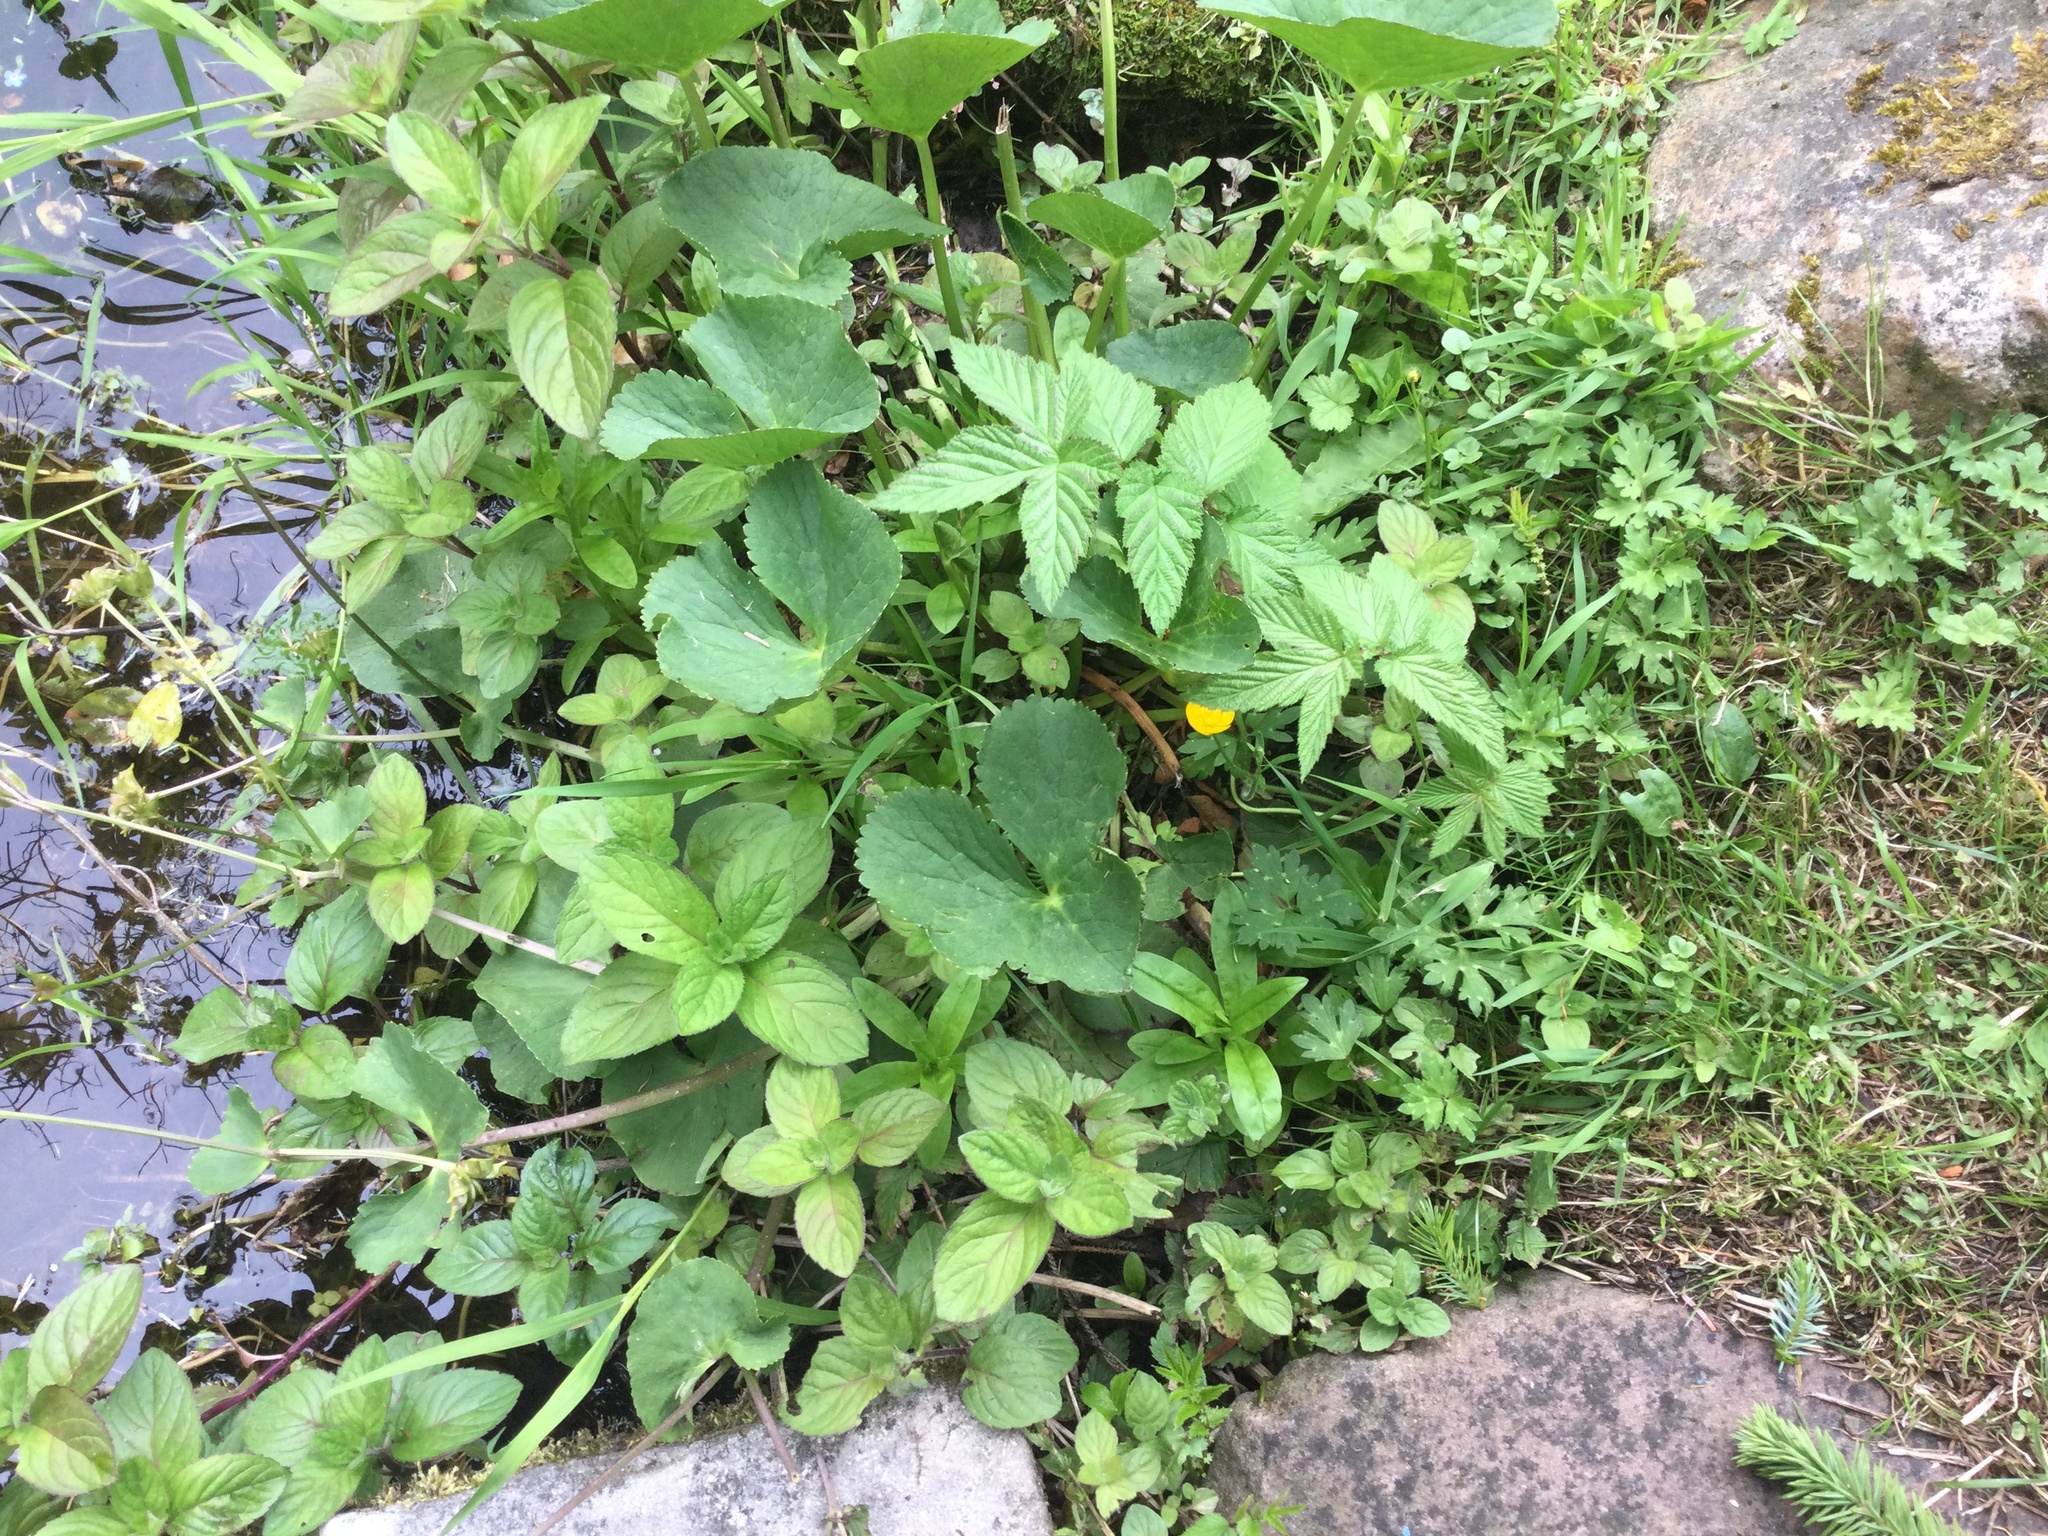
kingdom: Plantae
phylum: Tracheophyta
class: Magnoliopsida
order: Ranunculales
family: Ranunculaceae
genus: Caltha
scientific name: Caltha palustris
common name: Marsh marigold
